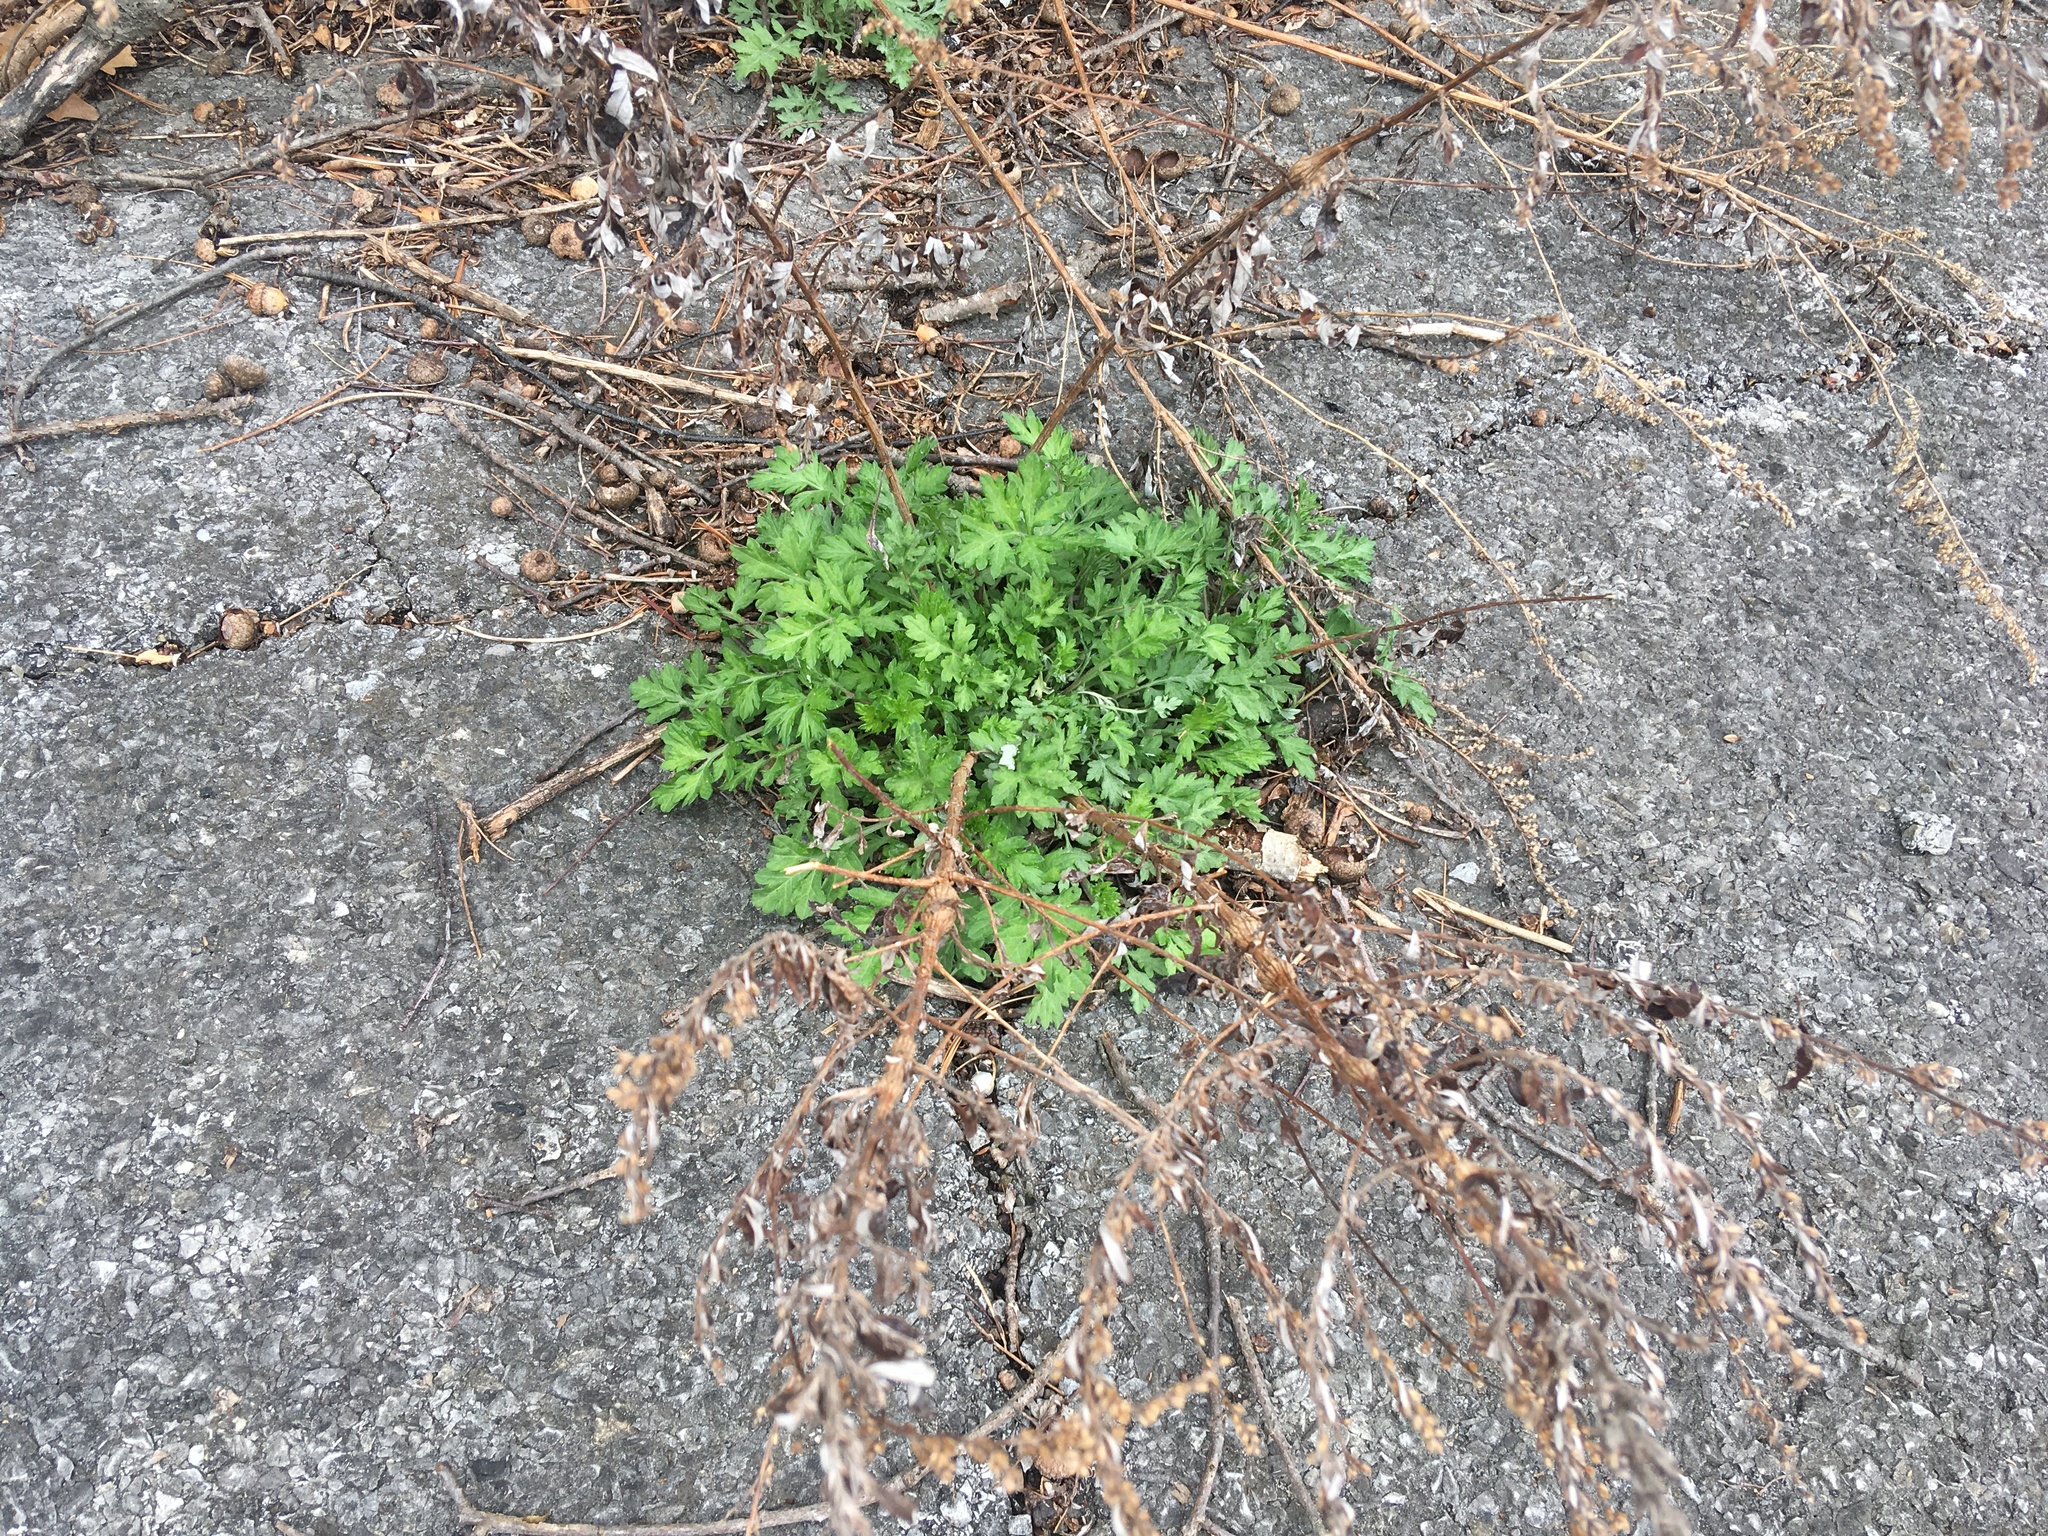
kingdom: Plantae
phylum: Tracheophyta
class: Magnoliopsida
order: Asterales
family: Asteraceae
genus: Artemisia
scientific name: Artemisia vulgaris
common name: Mugwort
